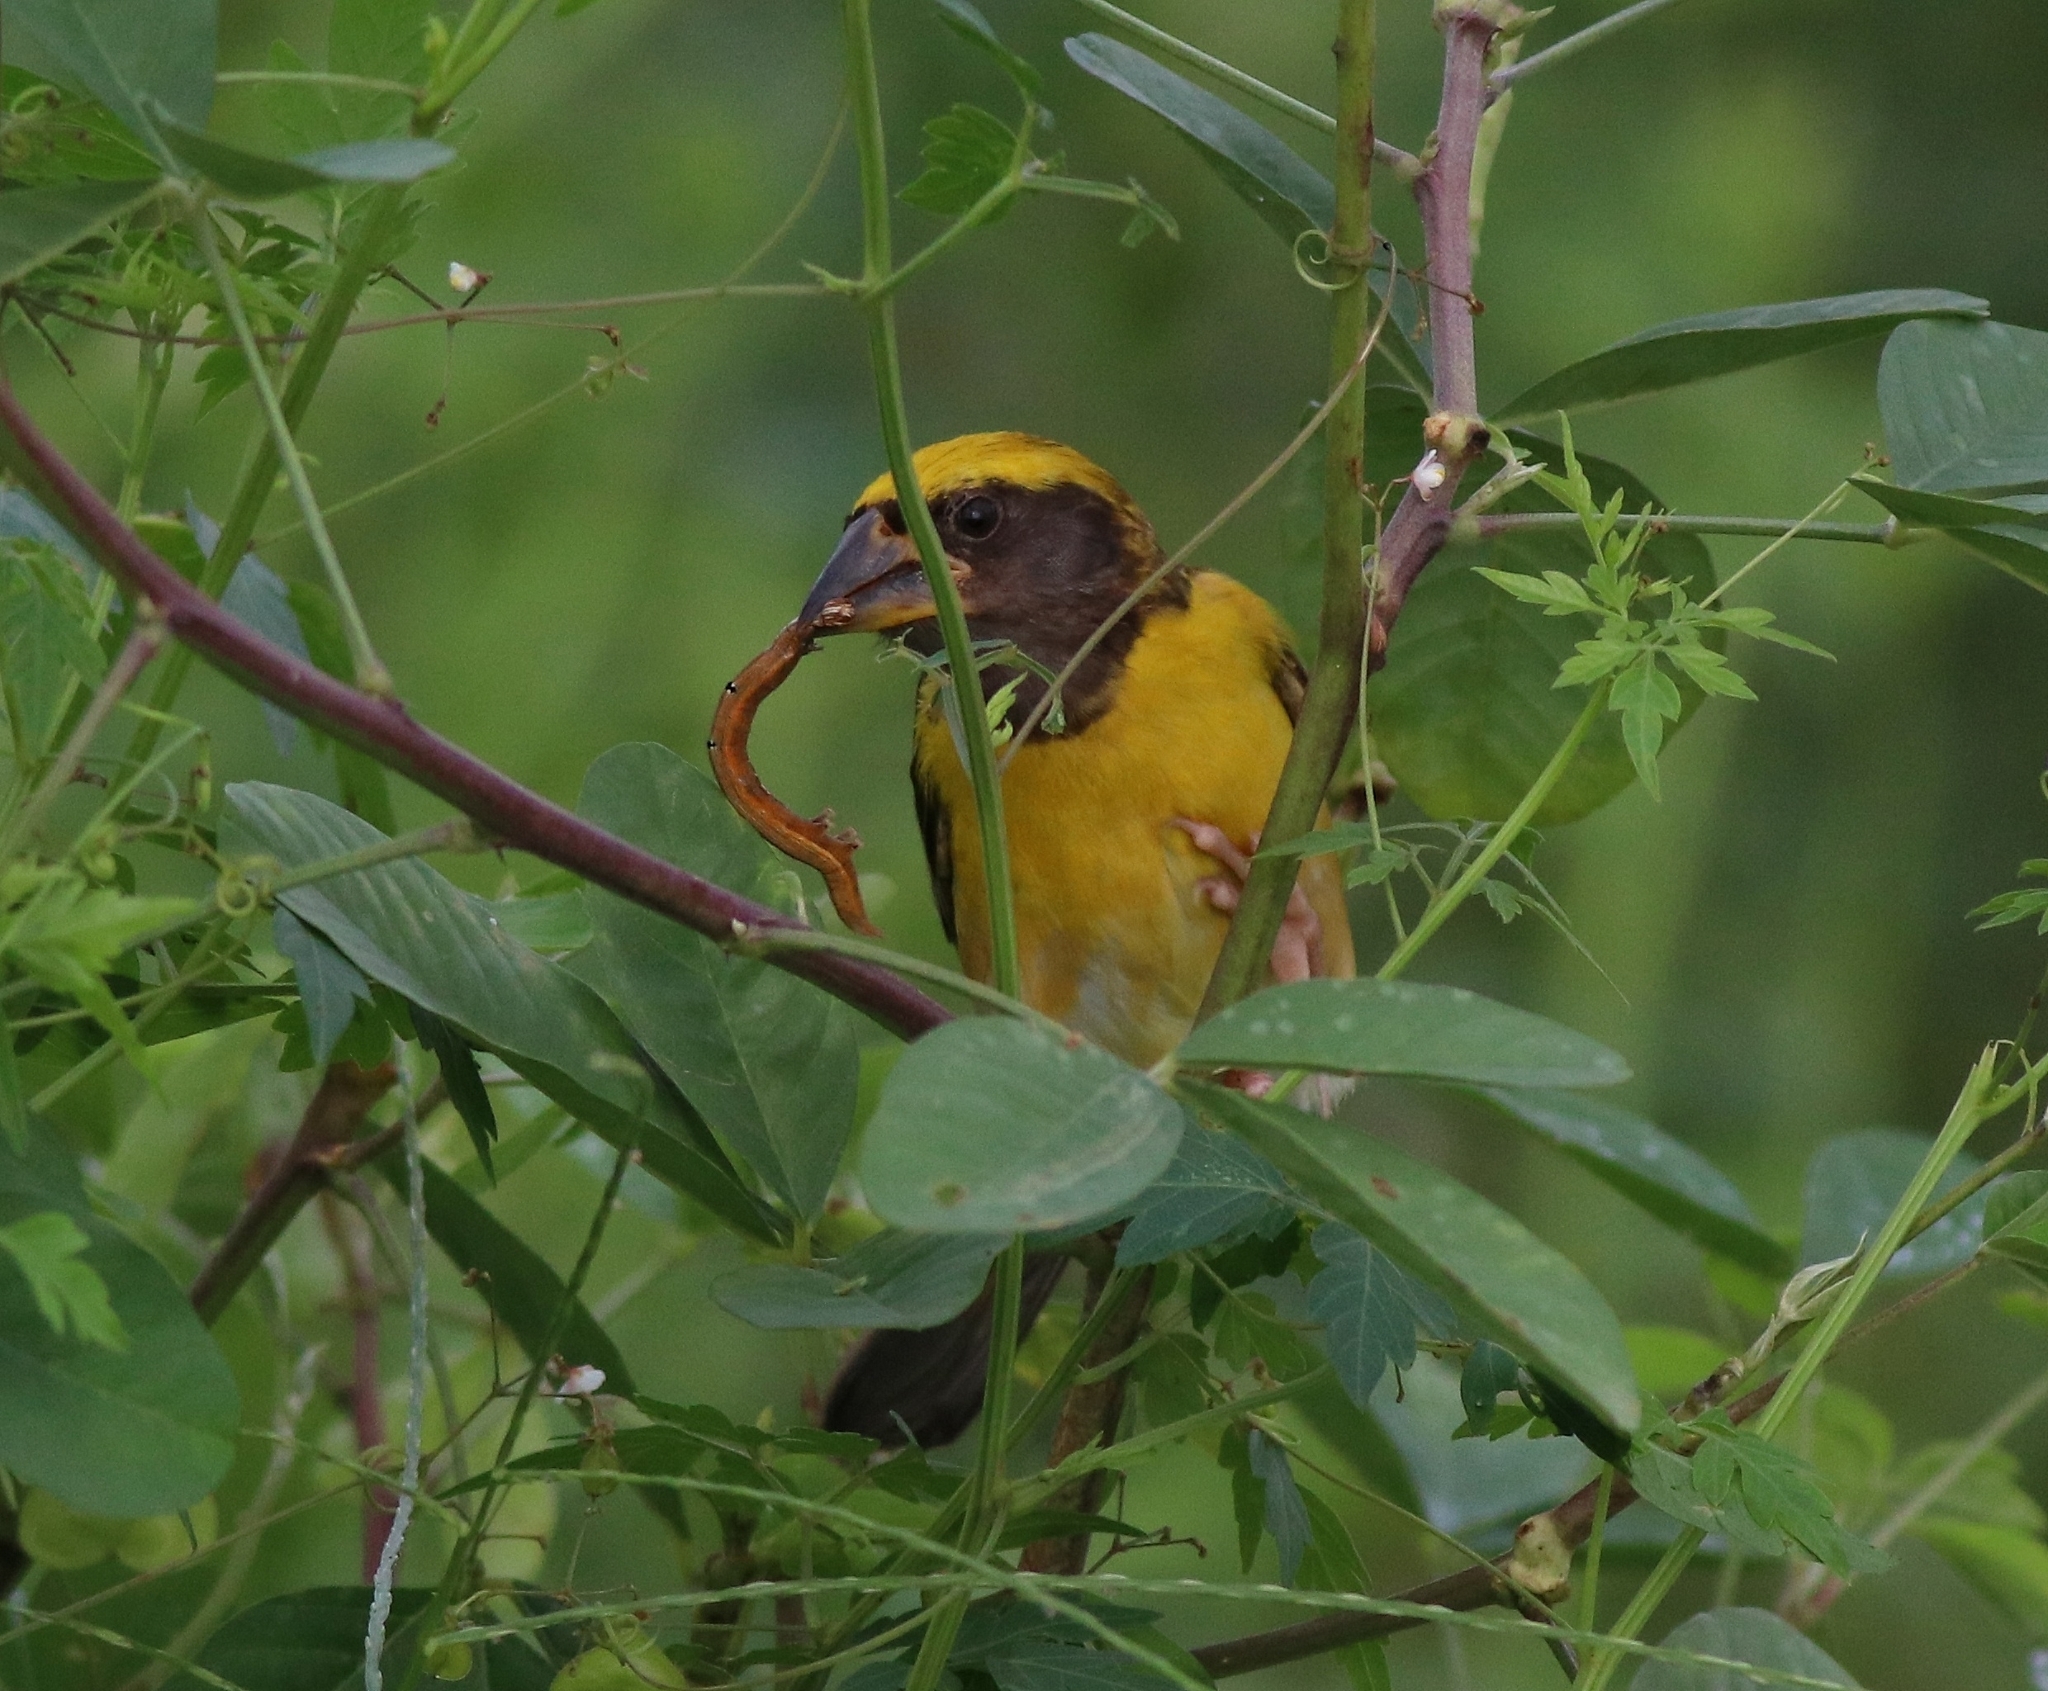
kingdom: Animalia
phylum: Chordata
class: Aves
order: Passeriformes
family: Ploceidae
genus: Ploceus
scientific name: Ploceus philippinus
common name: Baya weaver
